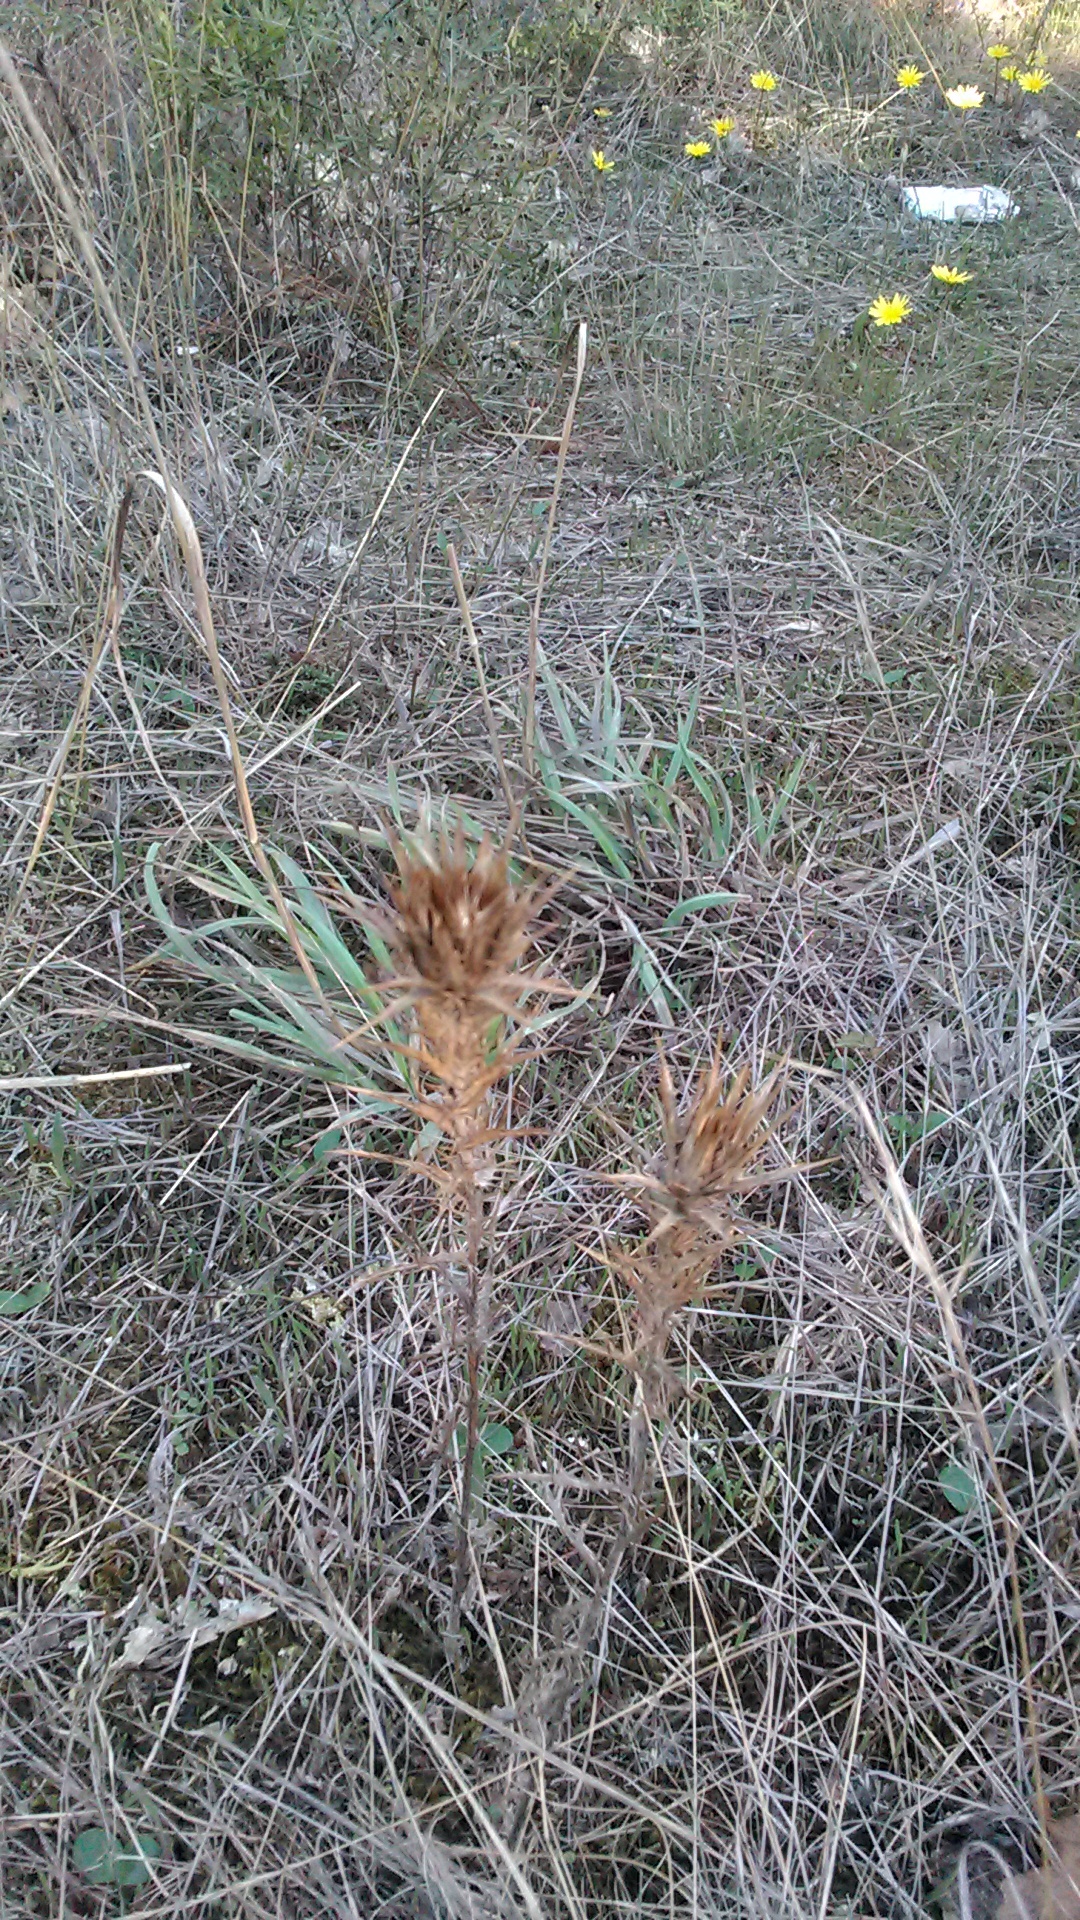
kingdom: Plantae
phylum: Tracheophyta
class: Magnoliopsida
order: Asterales
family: Asteraceae
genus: Carthamus
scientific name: Carthamus lanatus
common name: Downy safflower
